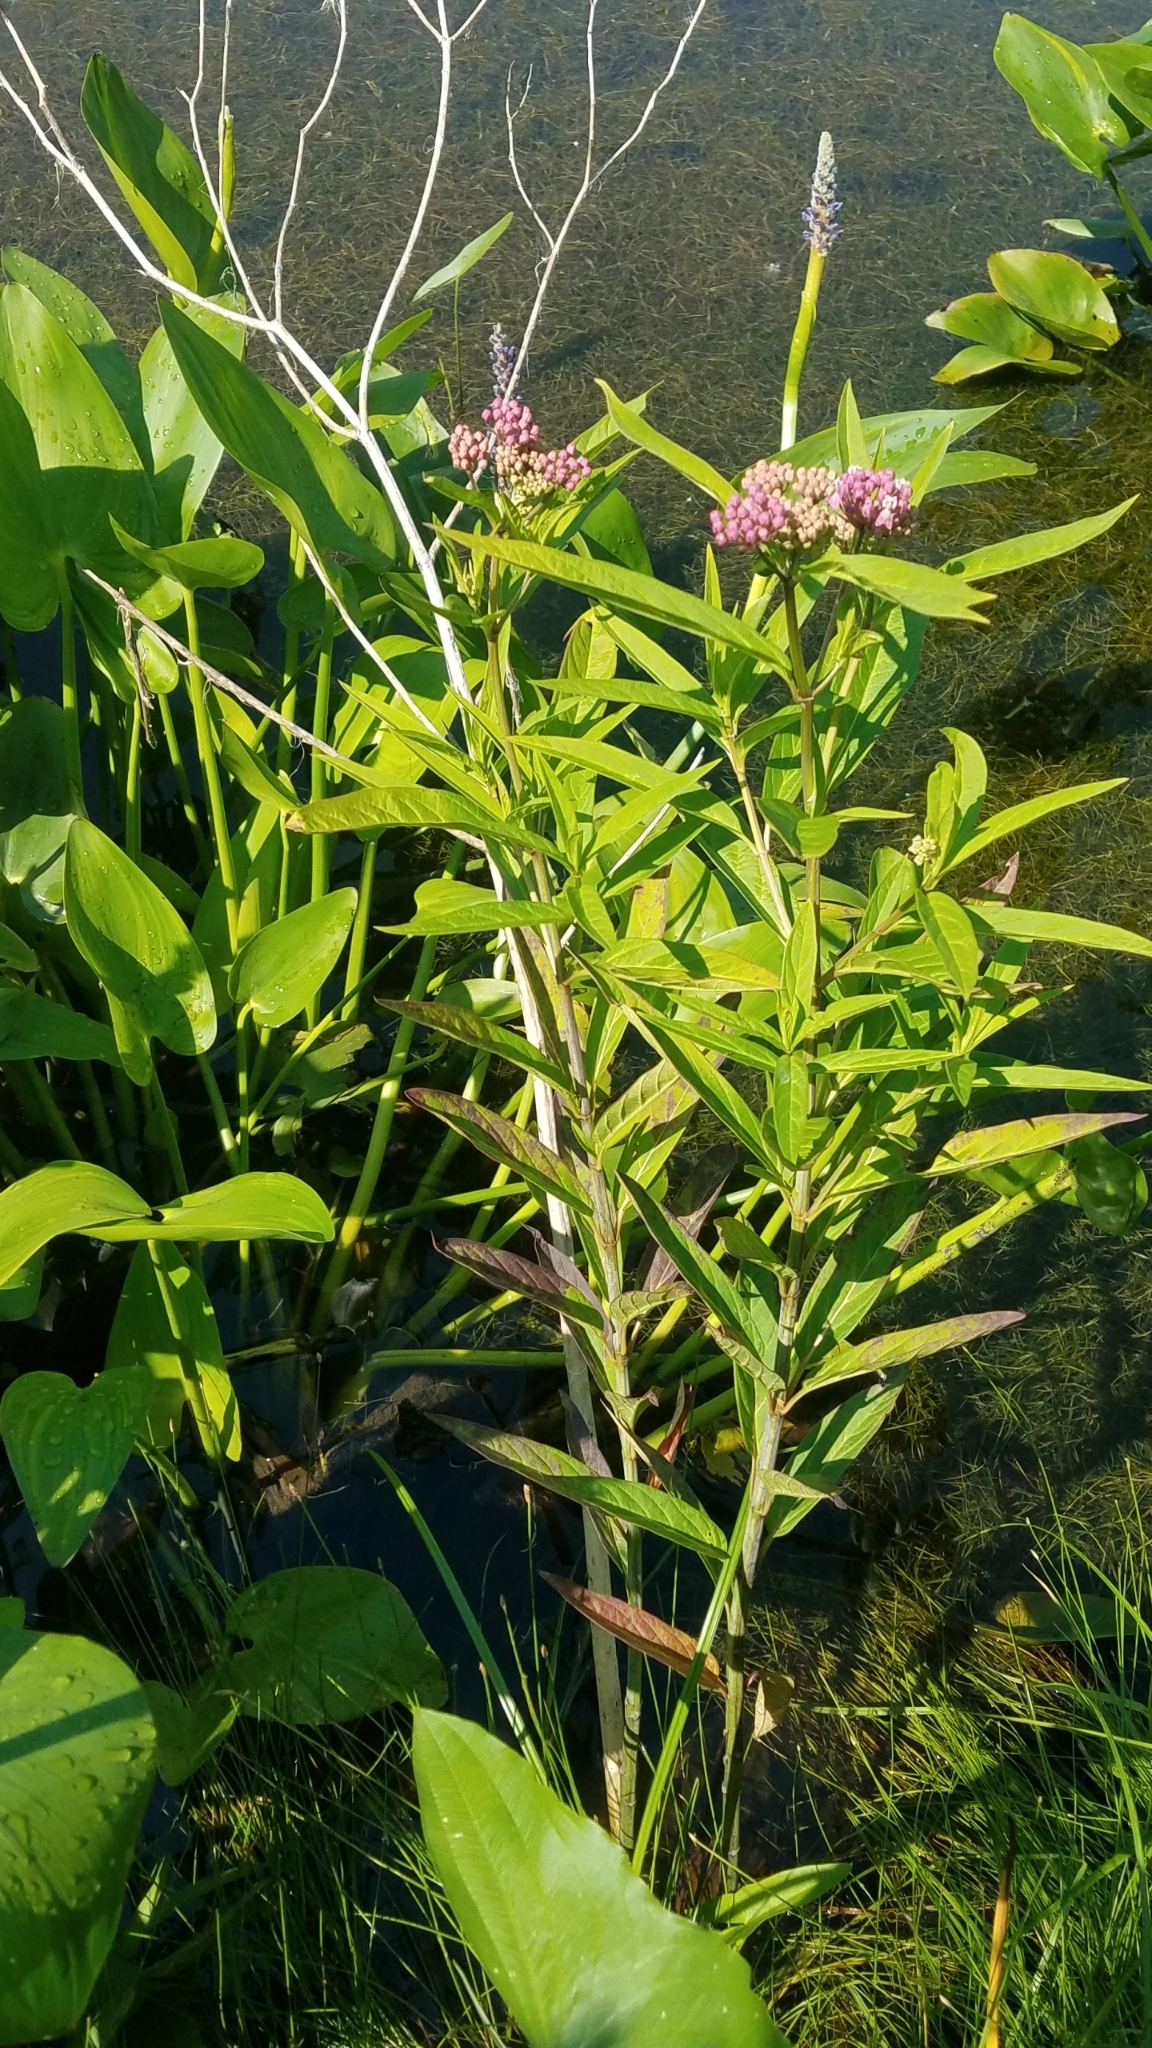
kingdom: Plantae
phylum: Tracheophyta
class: Magnoliopsida
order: Gentianales
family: Apocynaceae
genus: Asclepias
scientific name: Asclepias incarnata
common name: Swamp milkweed
